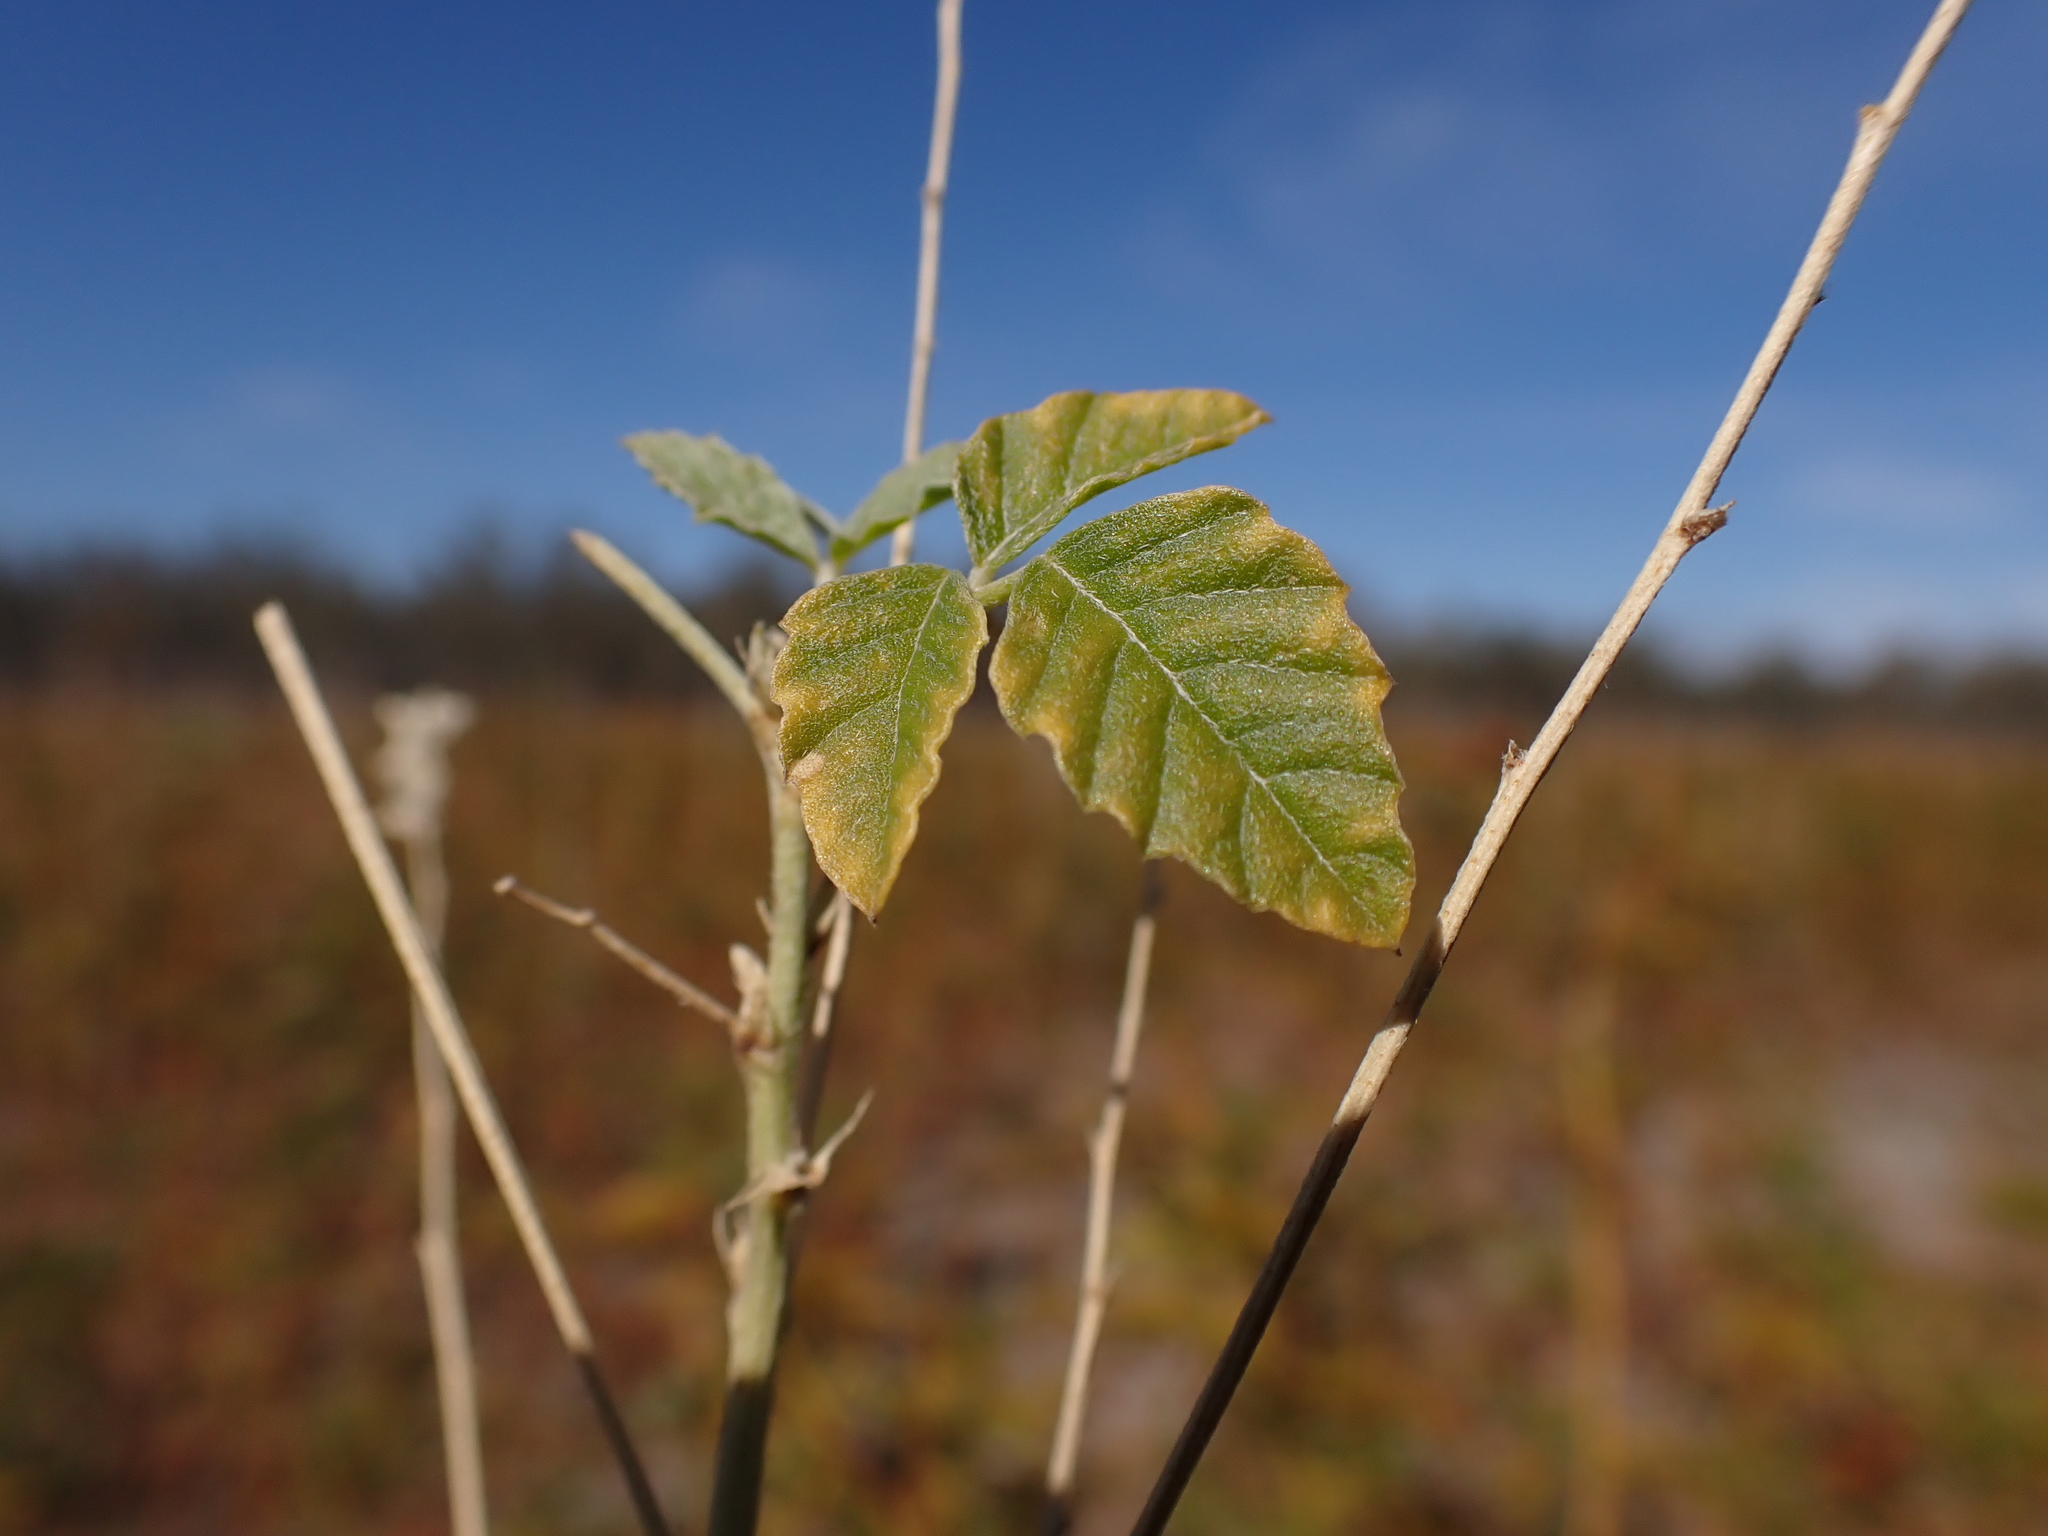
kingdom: Plantae
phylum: Tracheophyta
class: Magnoliopsida
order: Fabales
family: Fabaceae
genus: Cullen
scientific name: Cullen cinereum
